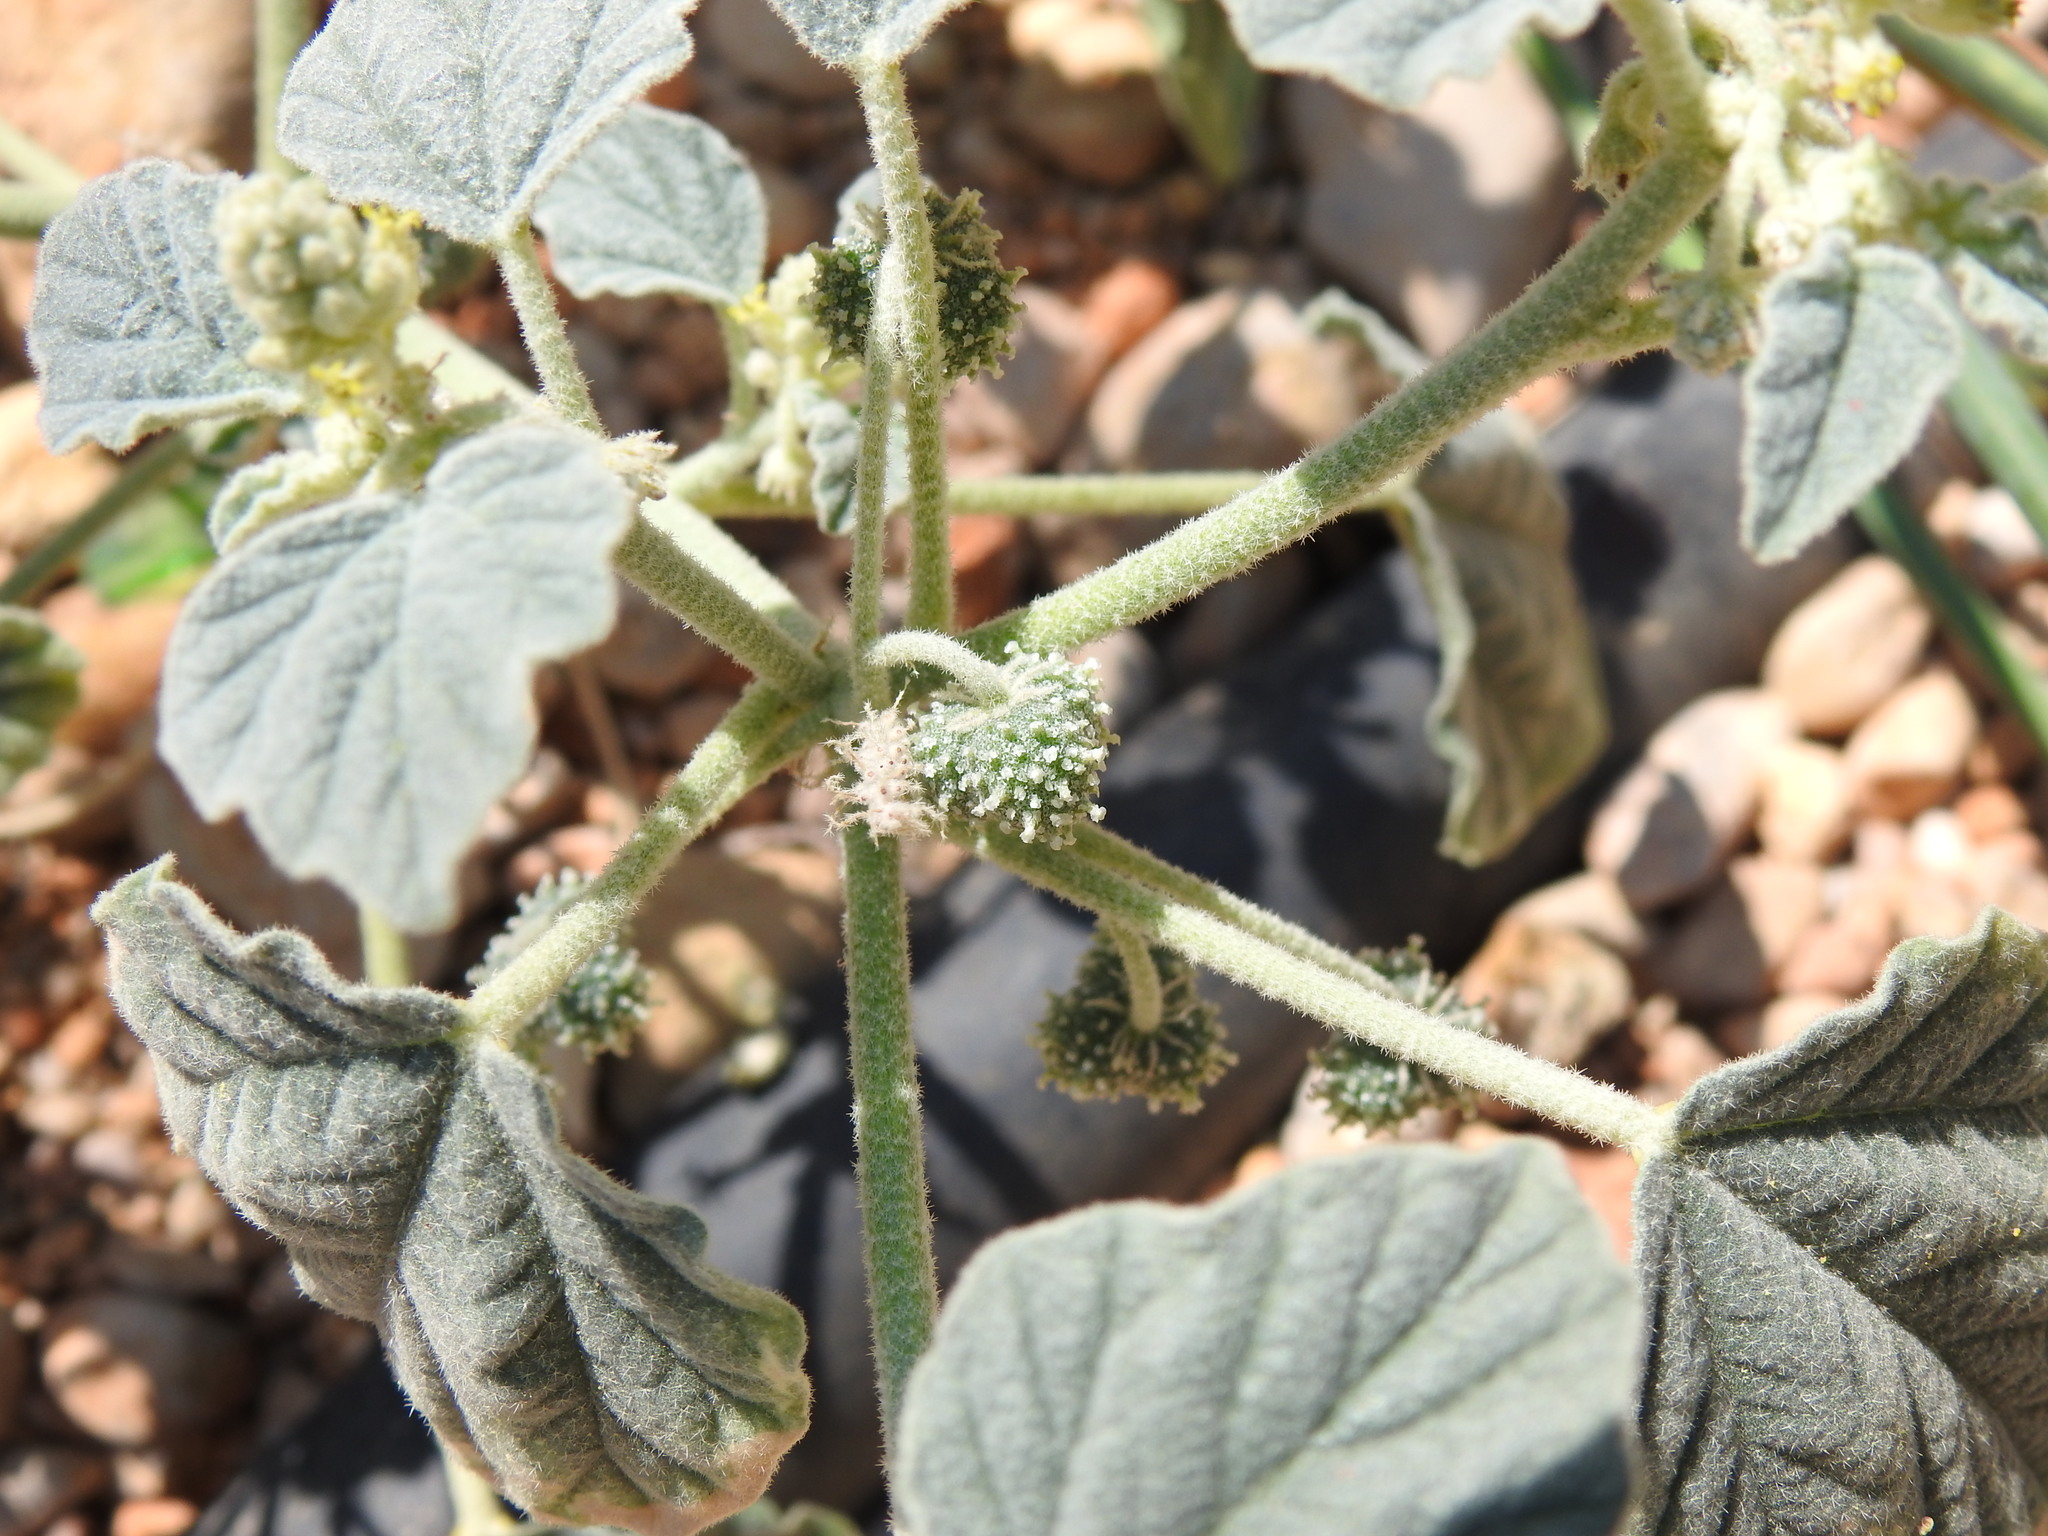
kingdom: Plantae
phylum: Tracheophyta
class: Magnoliopsida
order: Malpighiales
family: Euphorbiaceae
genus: Chrozophora
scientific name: Chrozophora tinctoria
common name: Dyer's litmus
